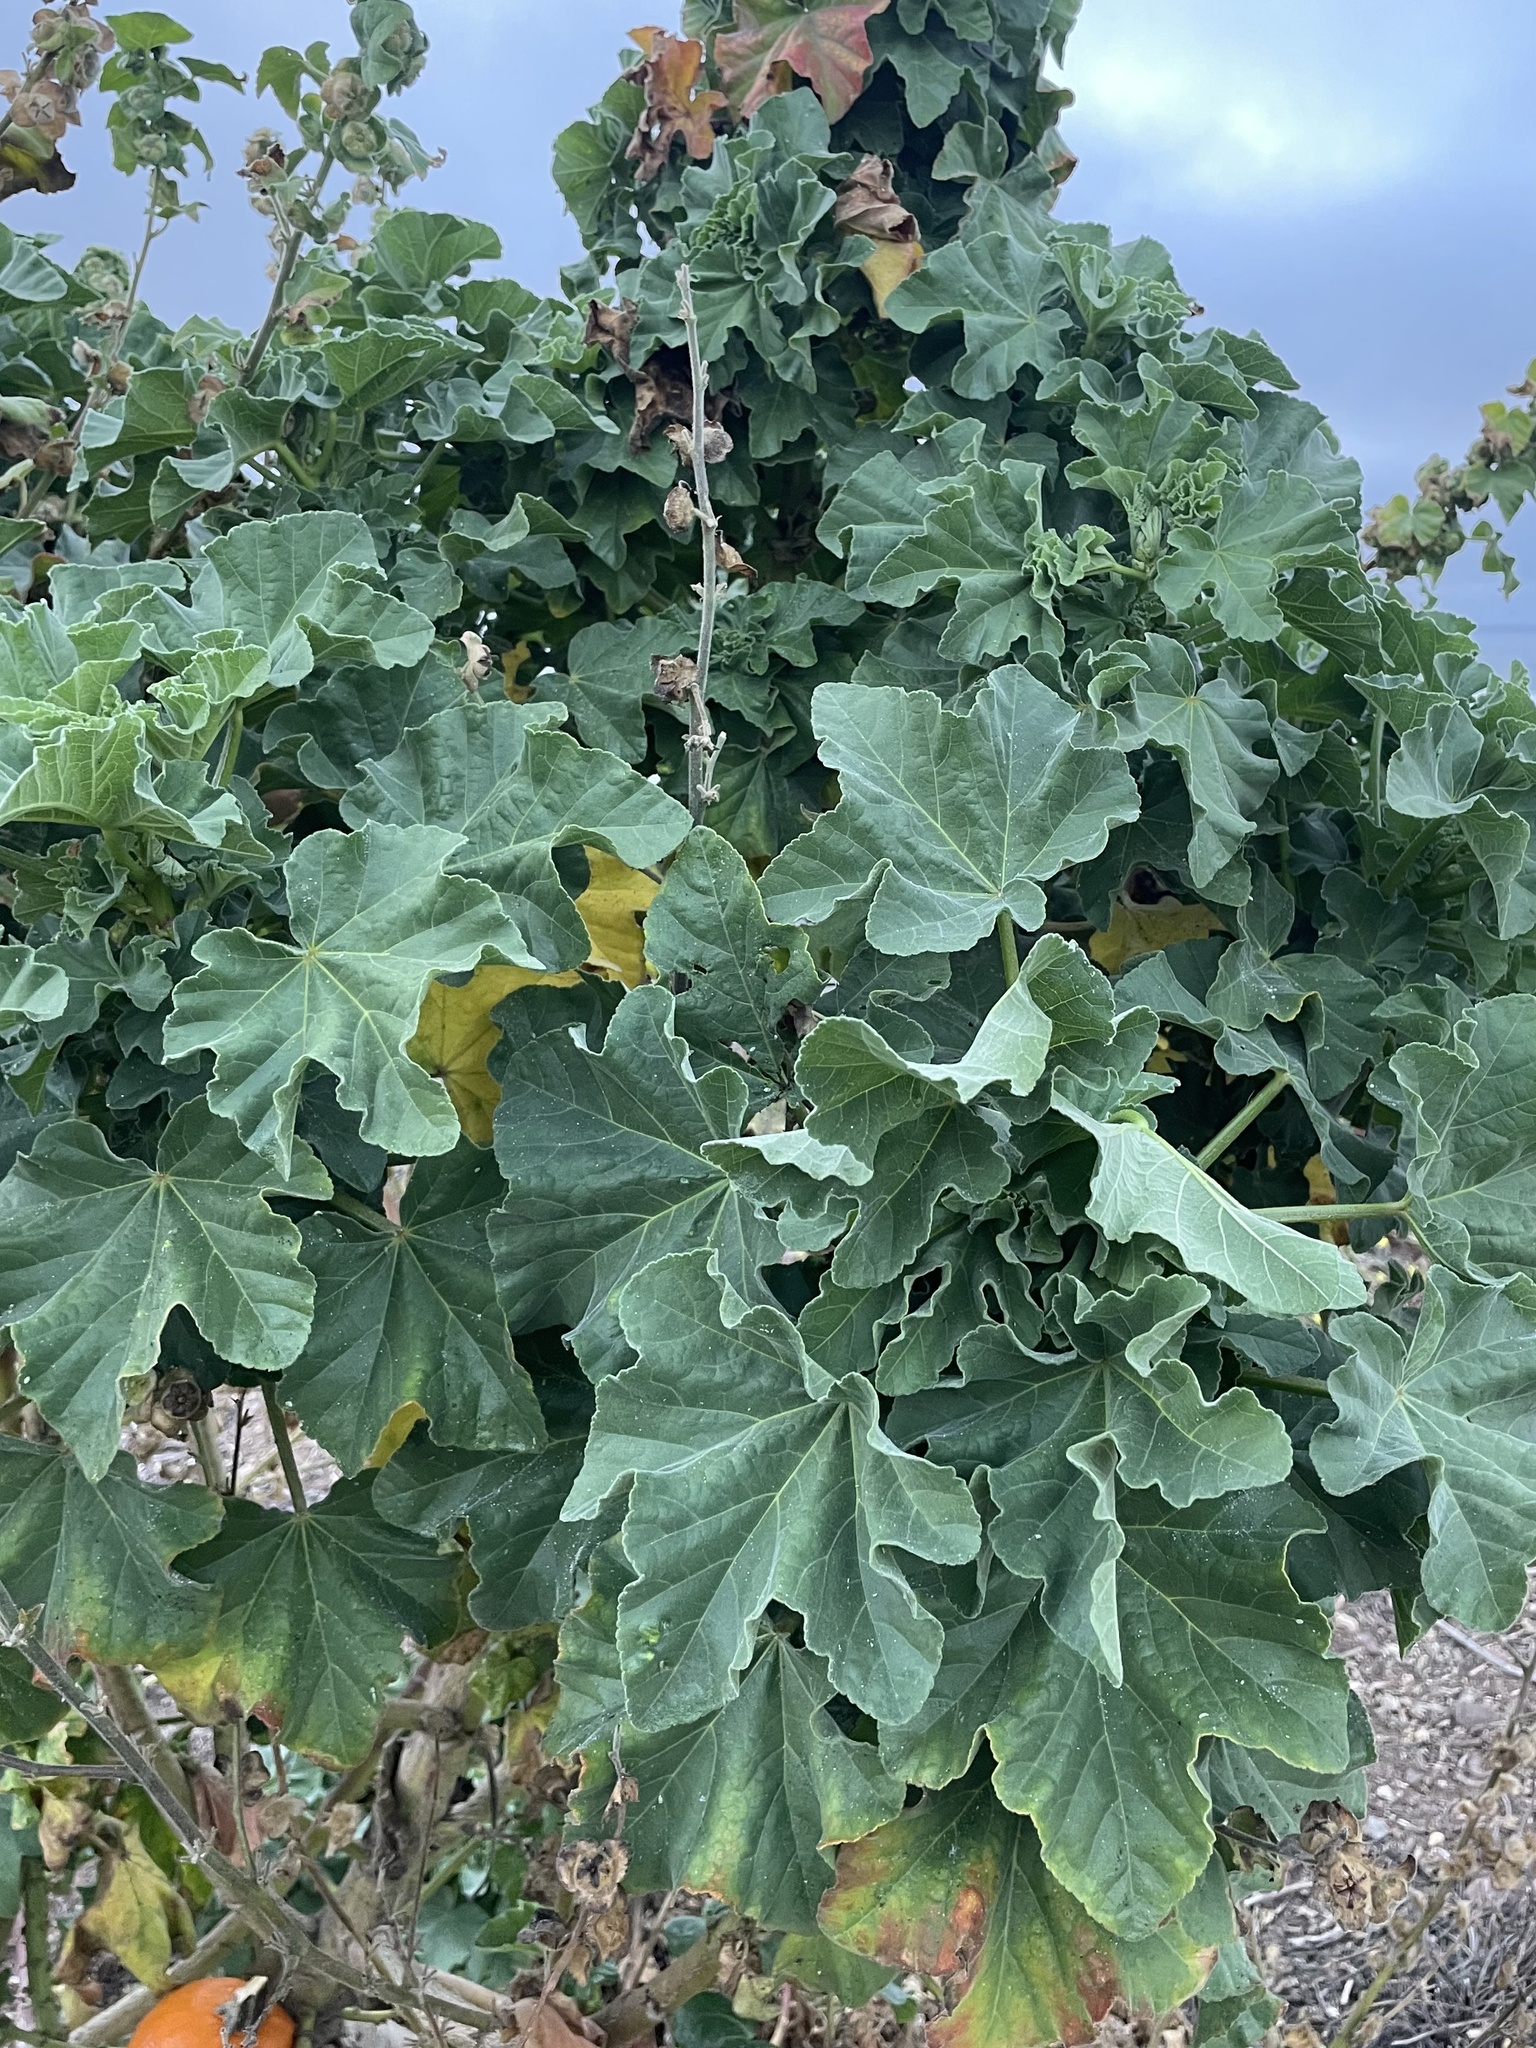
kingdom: Plantae
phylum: Tracheophyta
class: Magnoliopsida
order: Malvales
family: Malvaceae
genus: Malva
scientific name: Malva arborea
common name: Tree mallow
